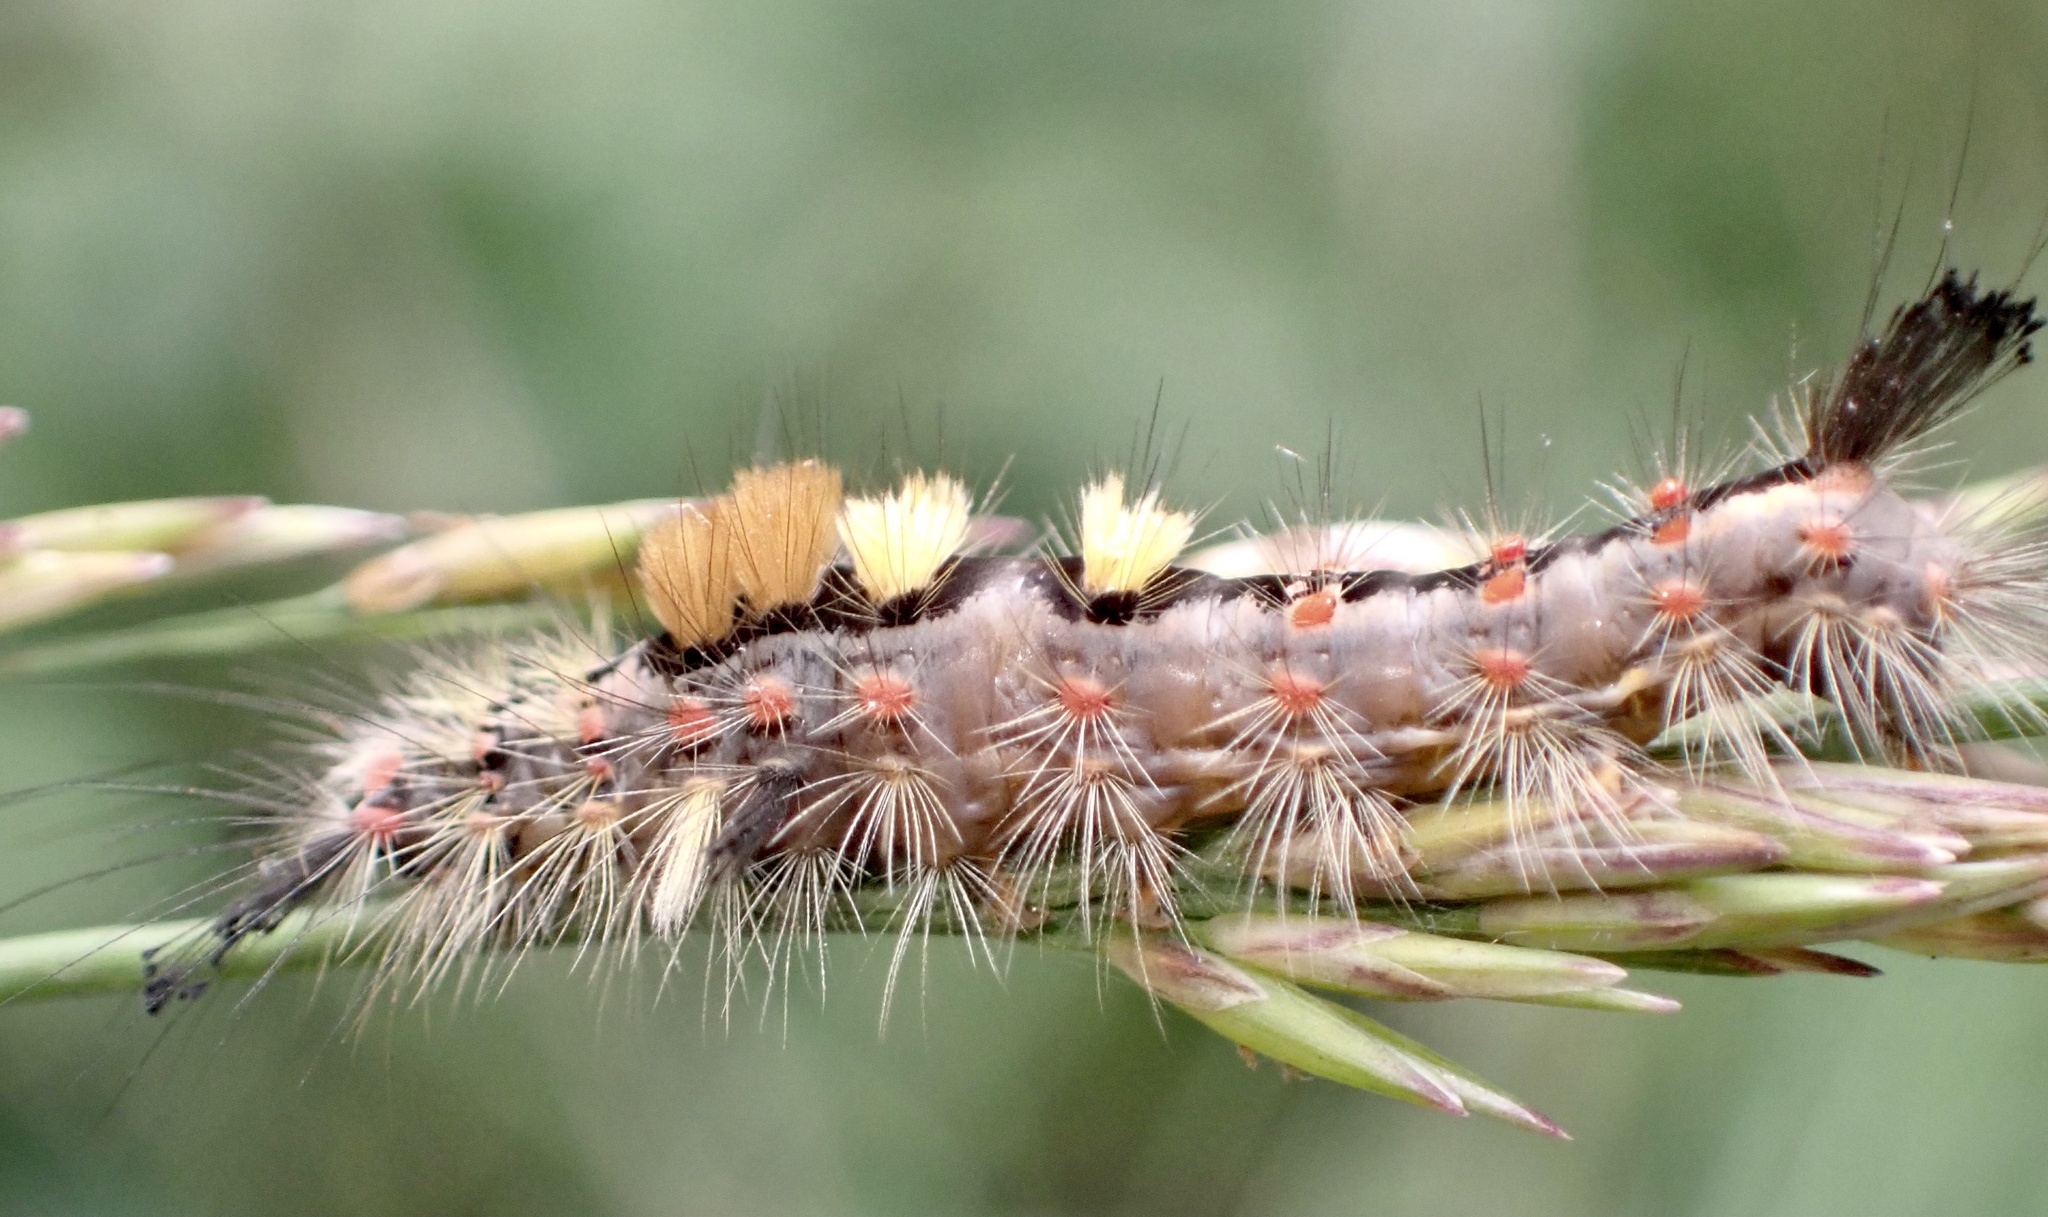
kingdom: Animalia
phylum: Arthropoda
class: Insecta
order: Lepidoptera
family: Erebidae
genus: Orgyia
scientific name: Orgyia antiqua
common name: Vapourer
